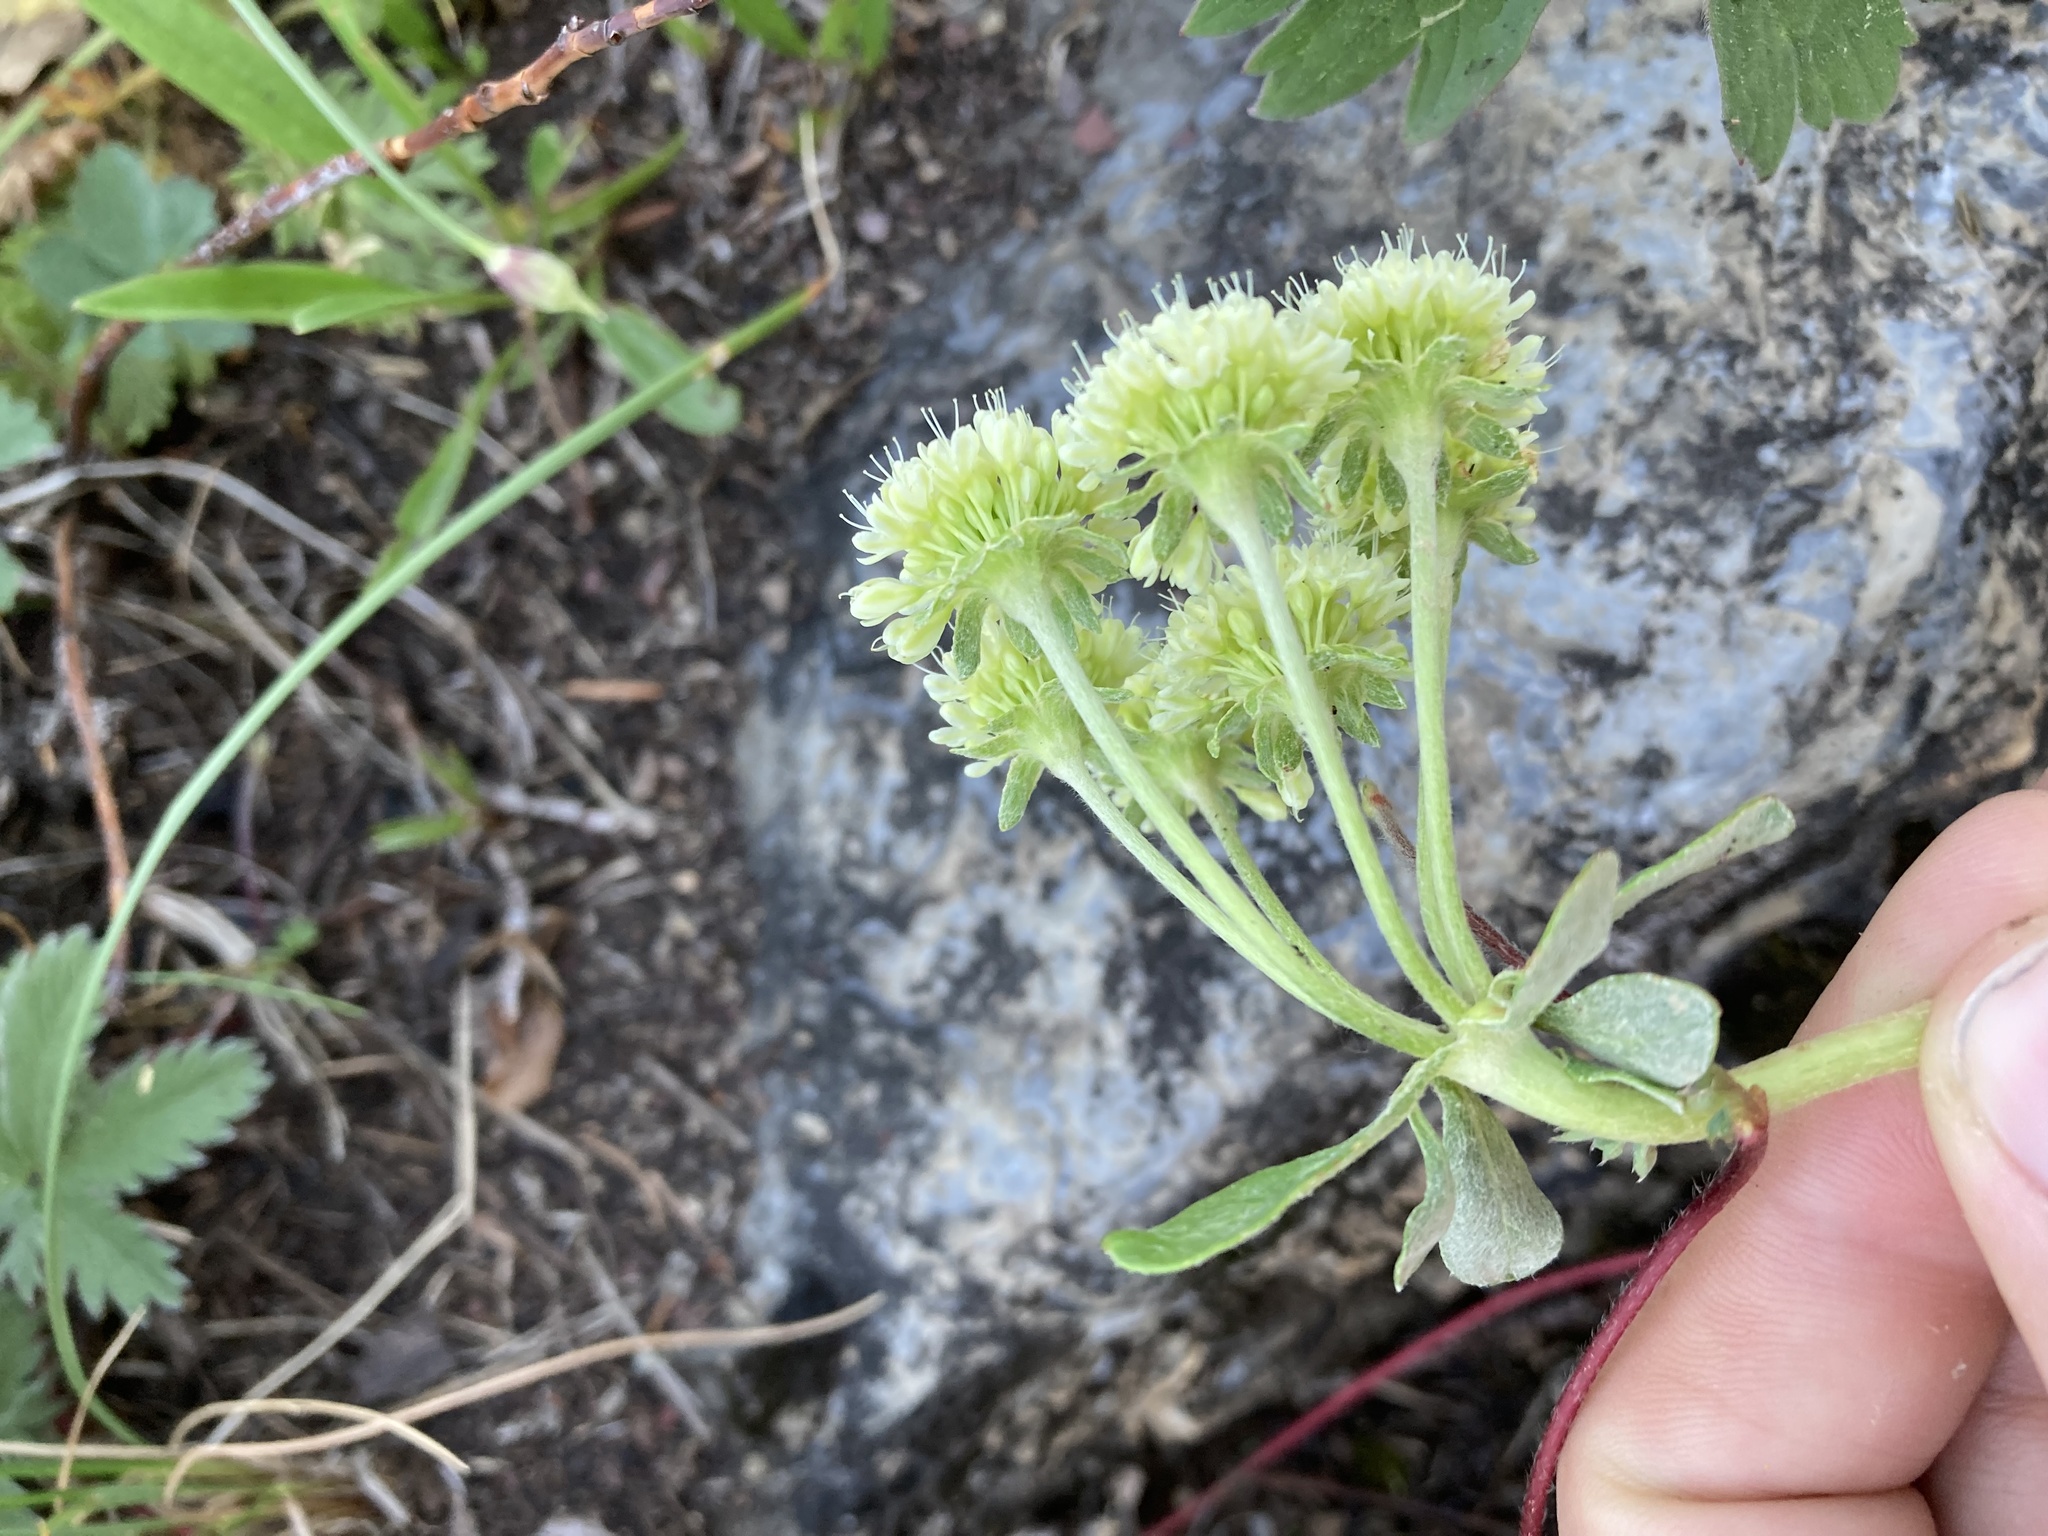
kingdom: Plantae
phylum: Tracheophyta
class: Magnoliopsida
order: Caryophyllales
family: Polygonaceae
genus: Eriogonum
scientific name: Eriogonum umbellatum
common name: Sulfur-buckwheat
